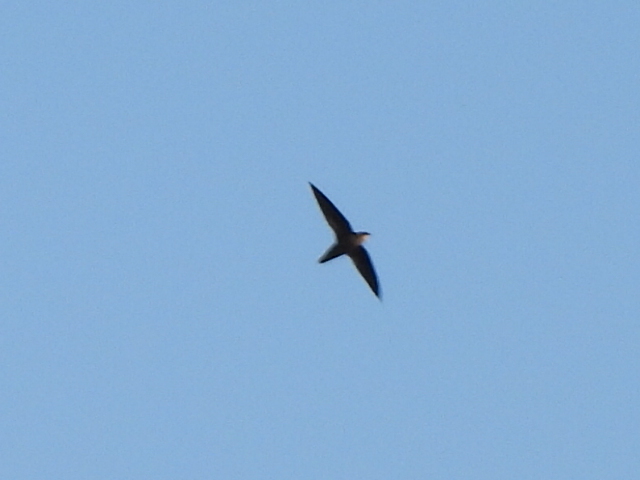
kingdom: Animalia
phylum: Chordata
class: Aves
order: Apodiformes
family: Apodidae
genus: Chaetura
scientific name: Chaetura pelagica
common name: Chimney swift
